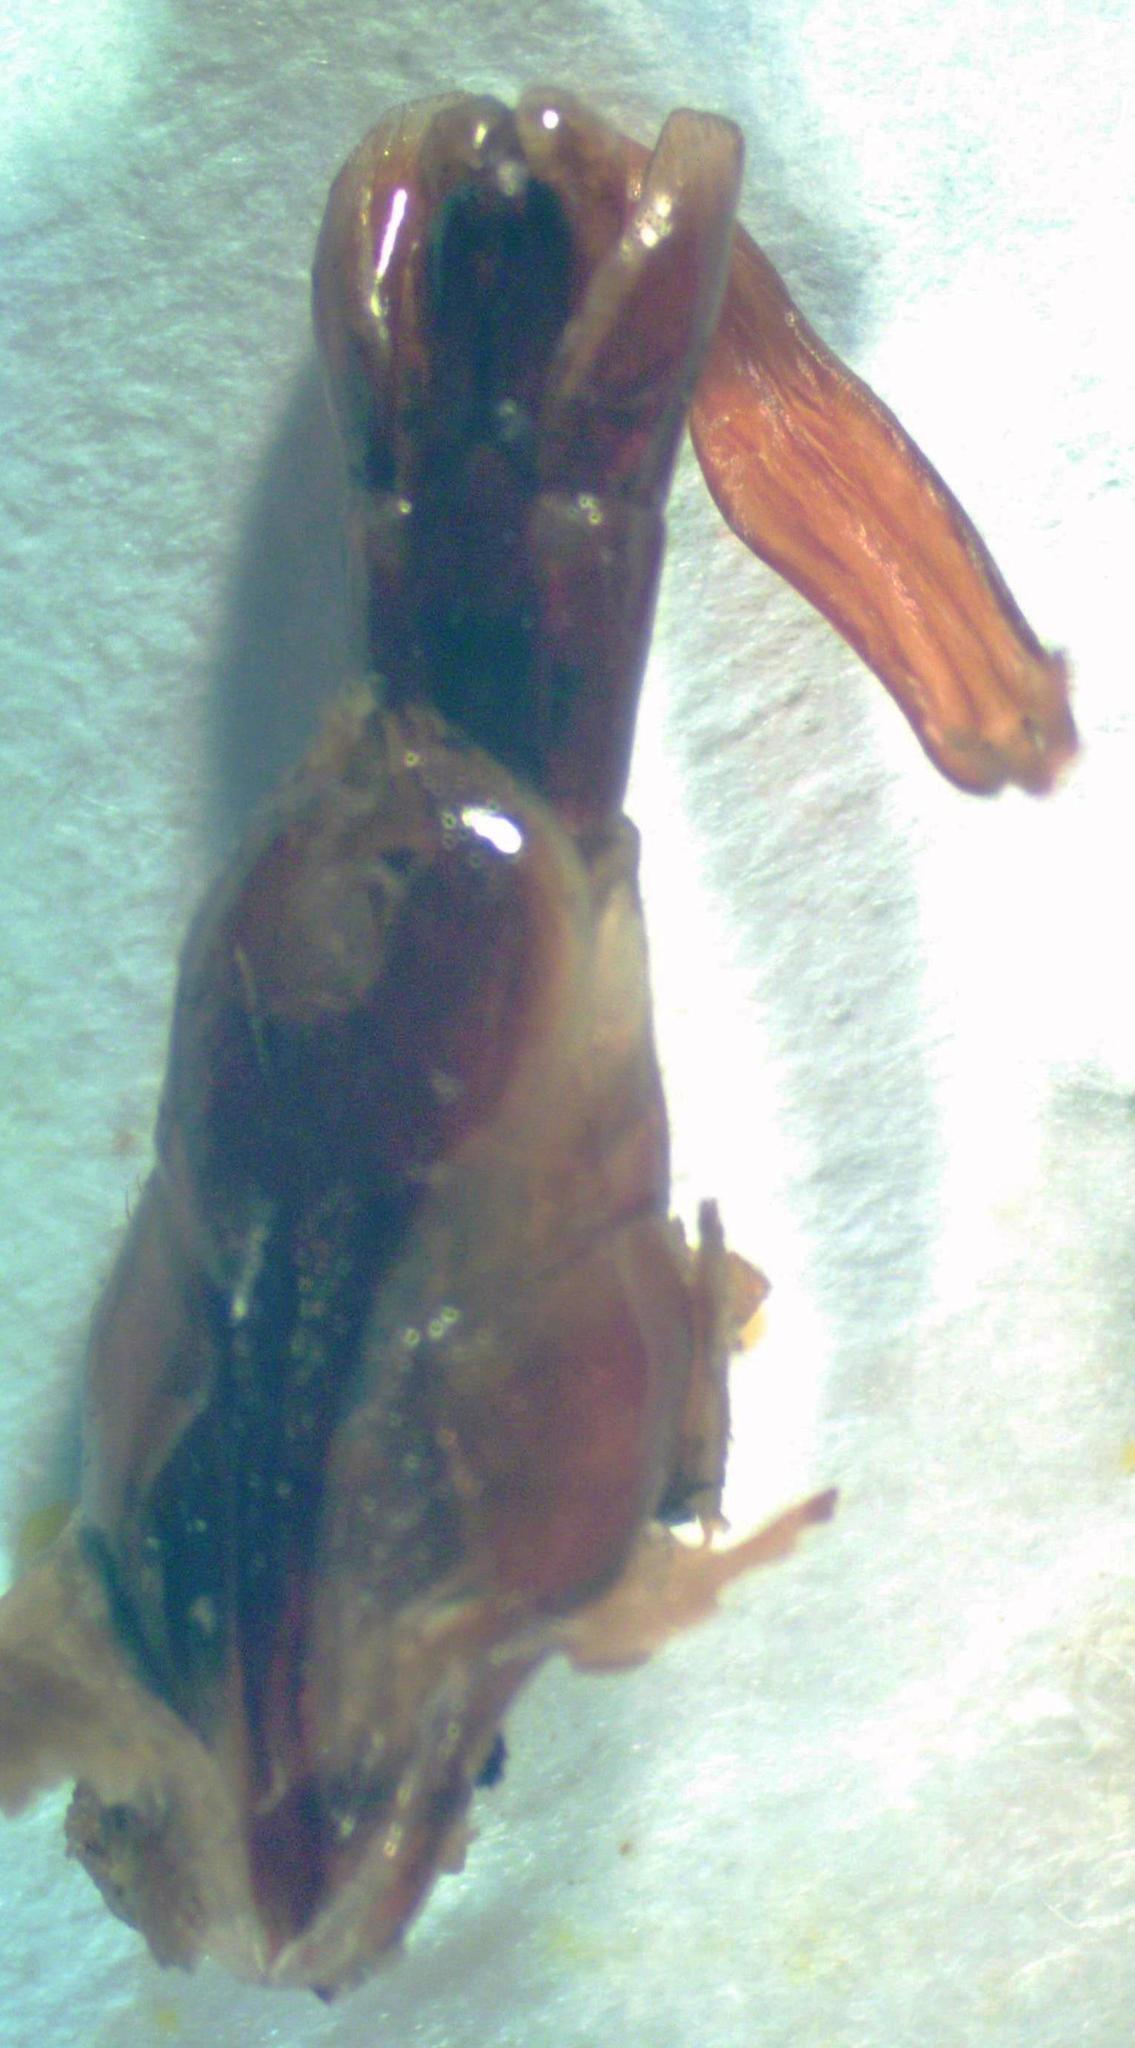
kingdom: Animalia
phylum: Arthropoda
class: Insecta
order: Coleoptera
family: Lucanidae
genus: Dorcus
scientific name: Dorcus yaksha
